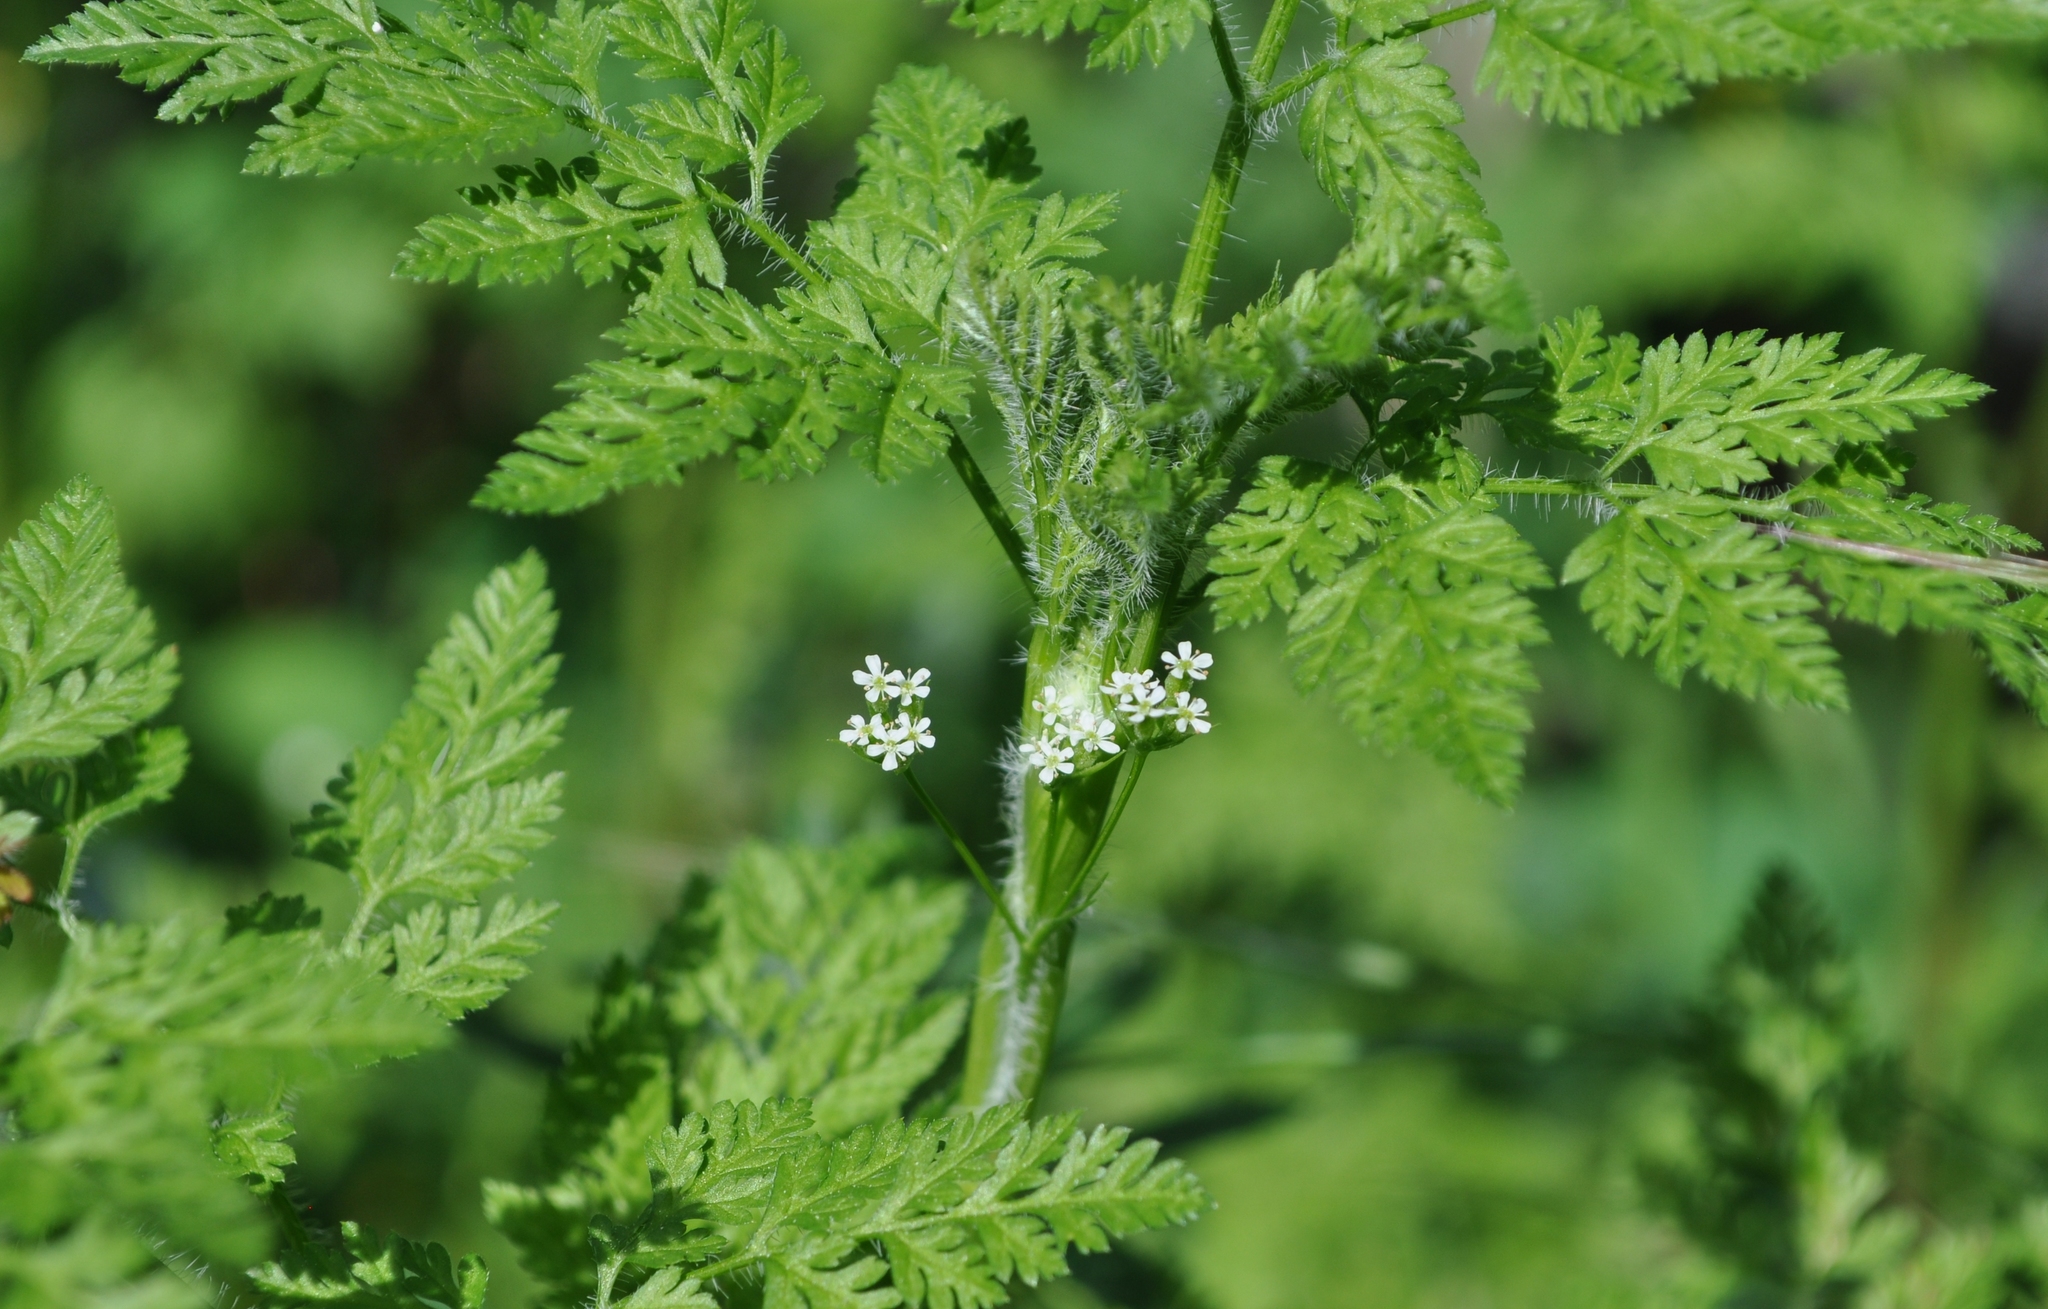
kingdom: Plantae
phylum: Tracheophyta
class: Magnoliopsida
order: Apiales
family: Apiaceae
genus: Anthriscus
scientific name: Anthriscus caucalis
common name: Bur chervil
